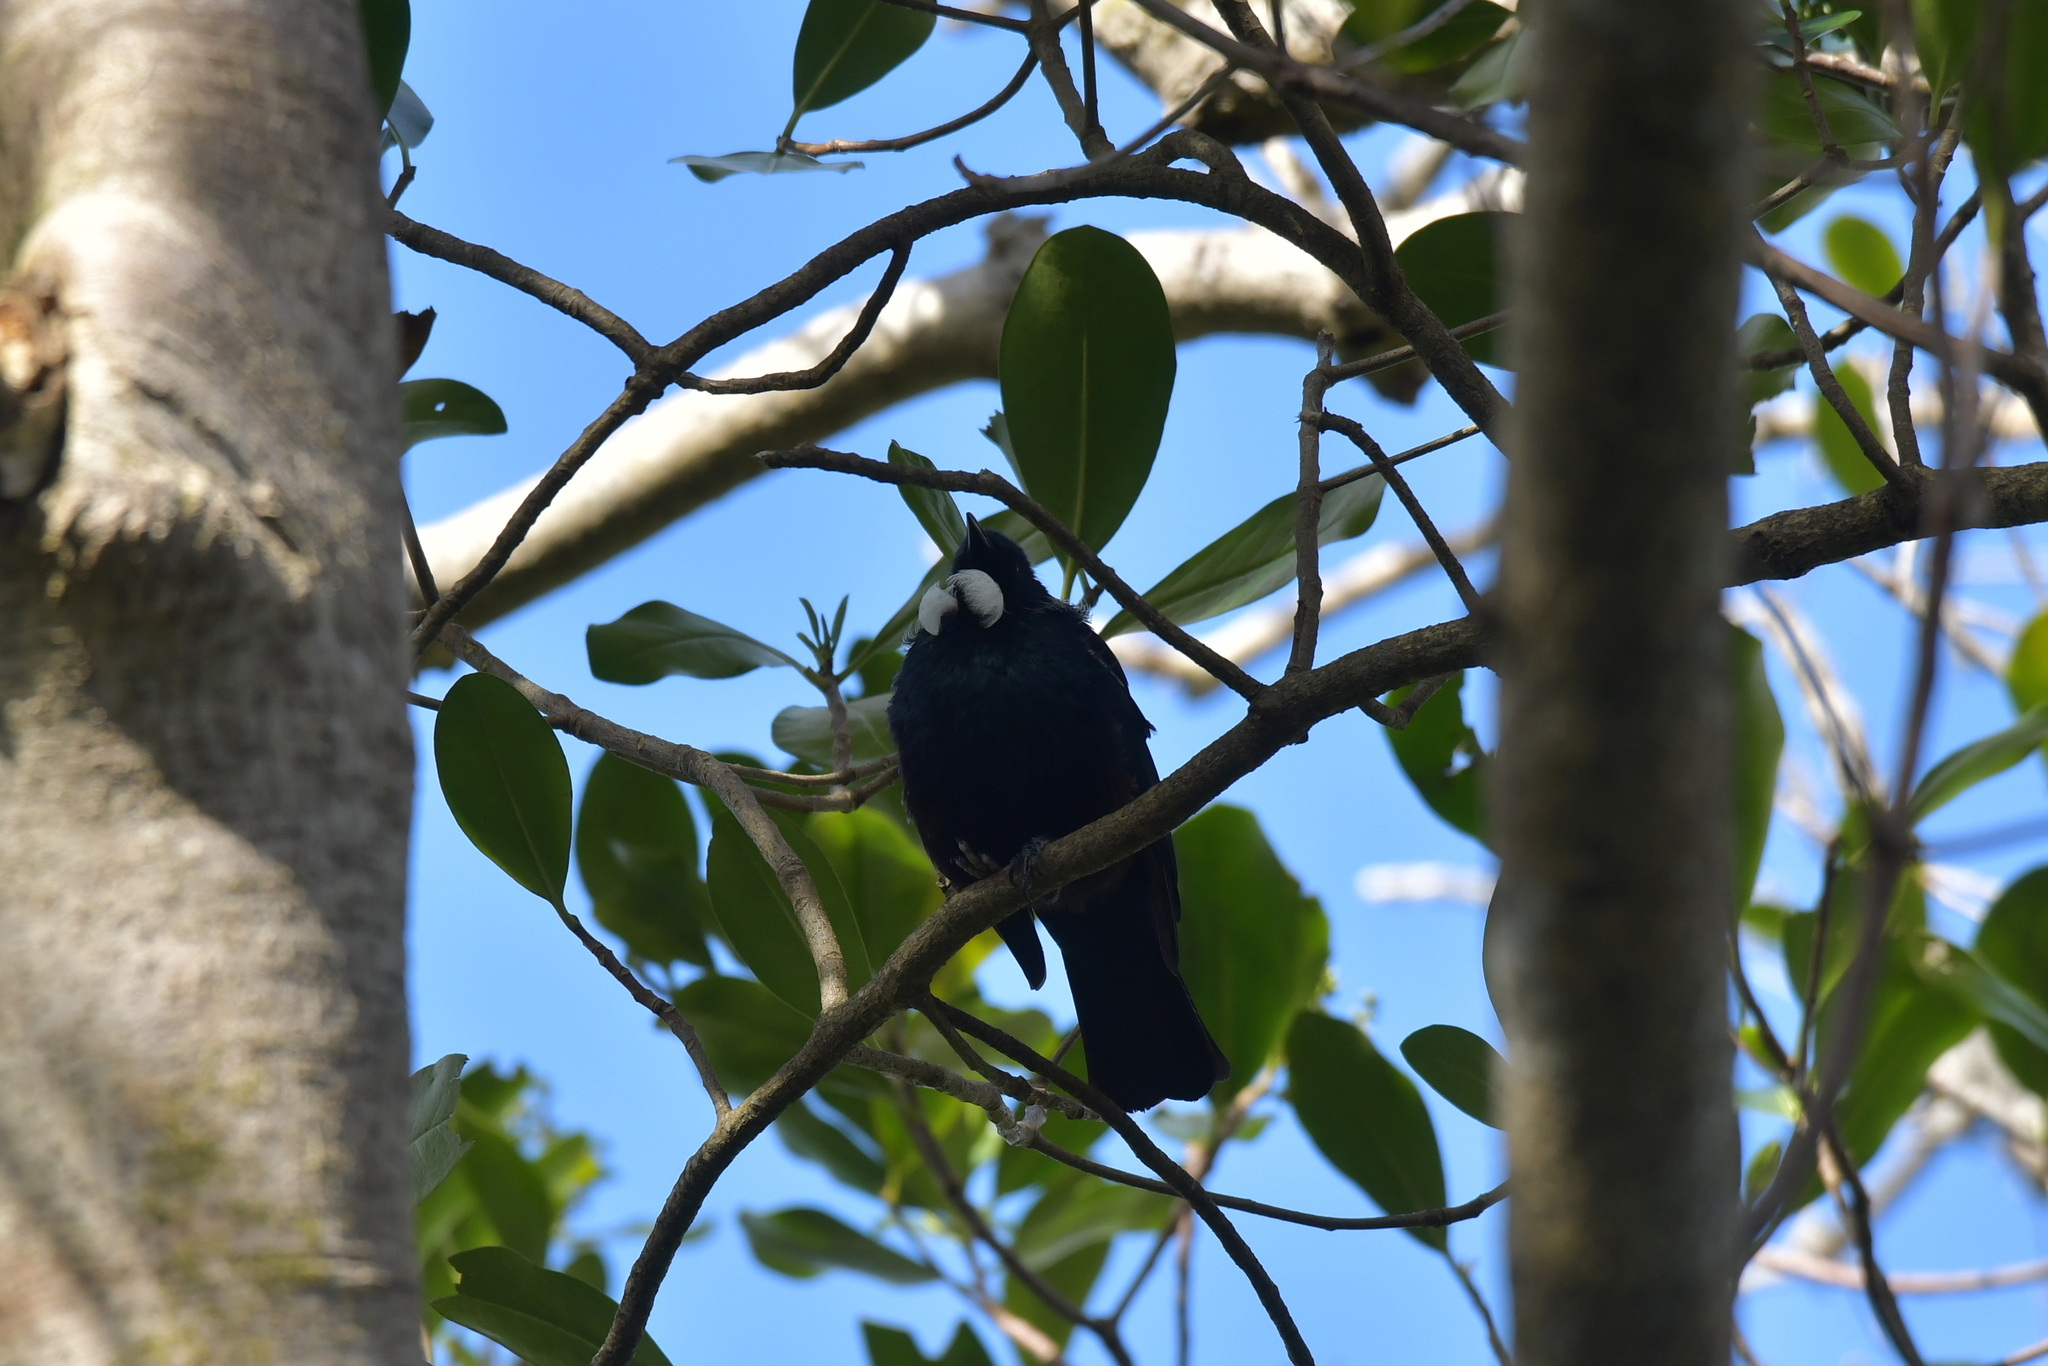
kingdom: Animalia
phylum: Chordata
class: Aves
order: Passeriformes
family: Meliphagidae
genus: Prosthemadera
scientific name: Prosthemadera novaeseelandiae
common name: Tui
